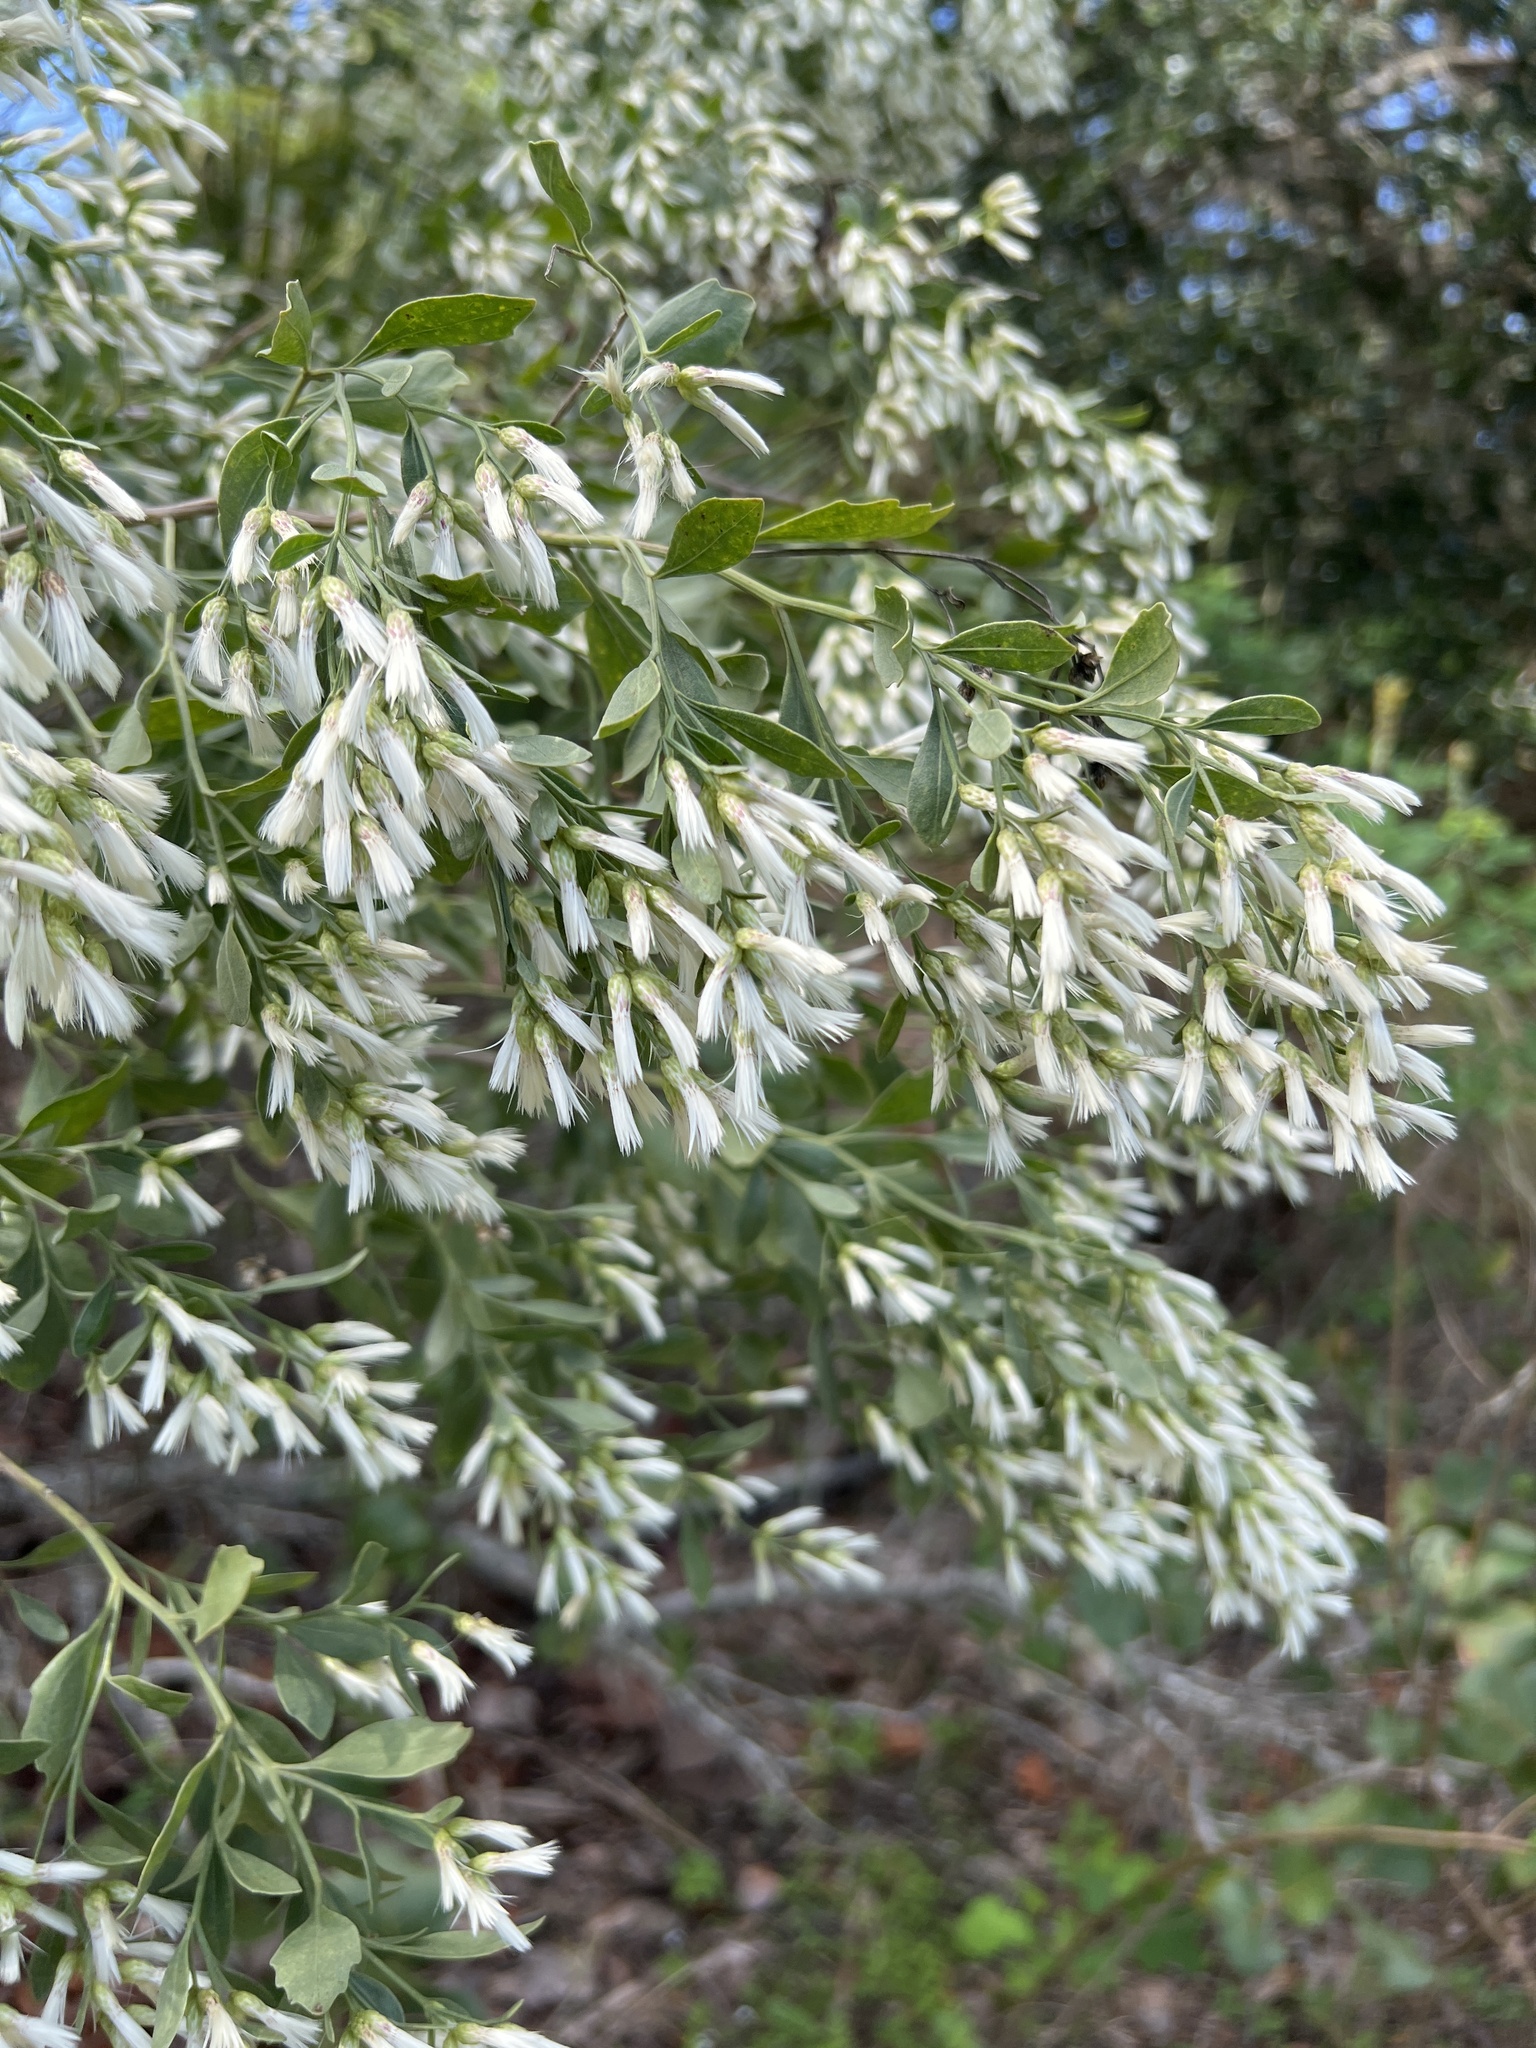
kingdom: Plantae
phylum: Tracheophyta
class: Magnoliopsida
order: Asterales
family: Asteraceae
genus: Baccharis
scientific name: Baccharis halimifolia
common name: Eastern baccharis
